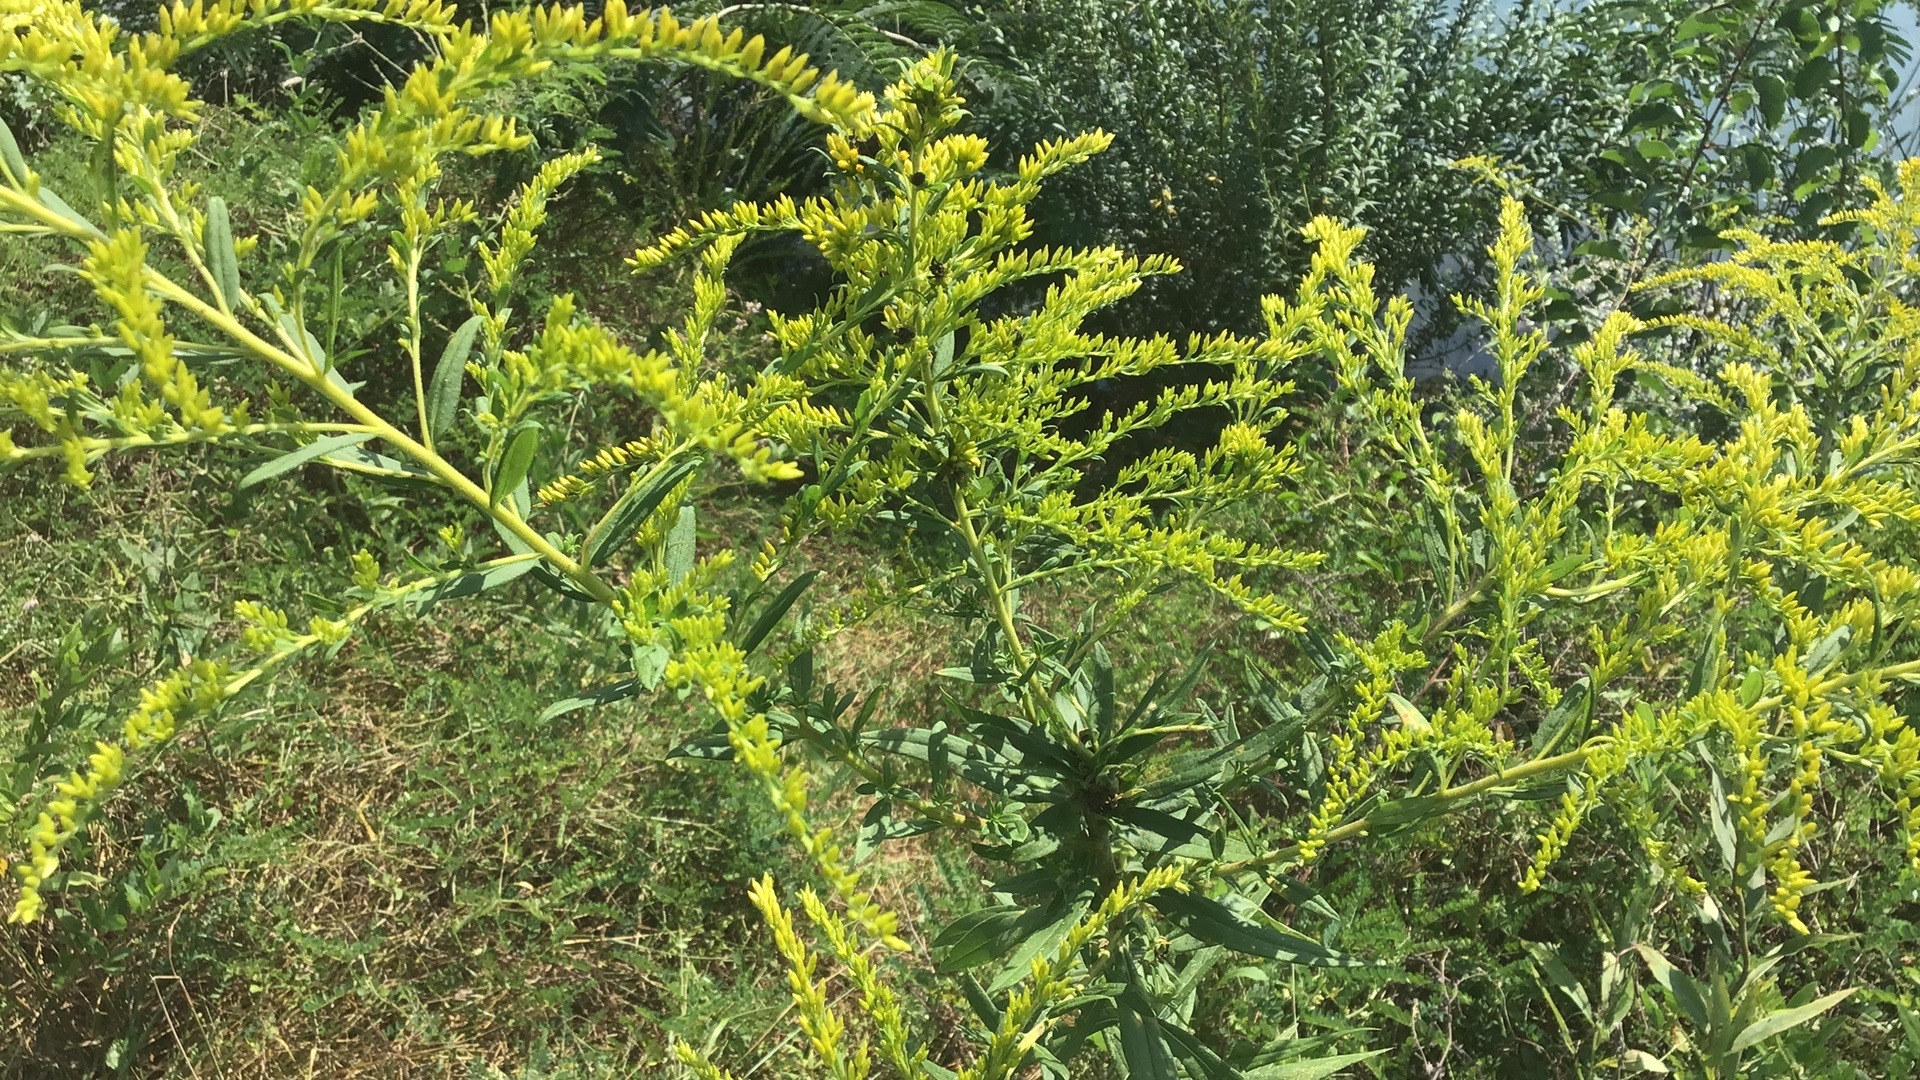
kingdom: Plantae
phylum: Tracheophyta
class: Magnoliopsida
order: Asterales
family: Asteraceae
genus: Solidago
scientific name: Solidago altissima
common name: Late goldenrod
